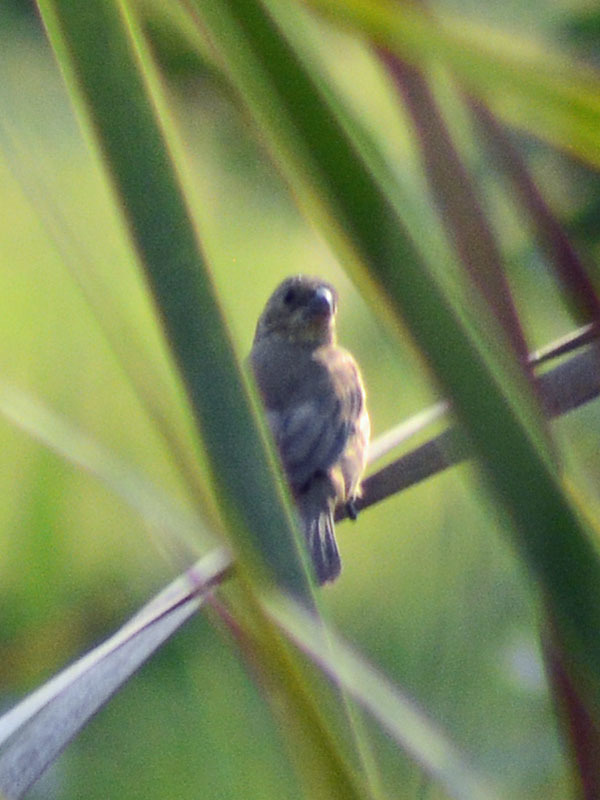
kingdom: Animalia
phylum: Chordata
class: Aves
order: Passeriformes
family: Thraupidae
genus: Sporophila
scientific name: Sporophila torqueola
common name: White-collared seedeater
